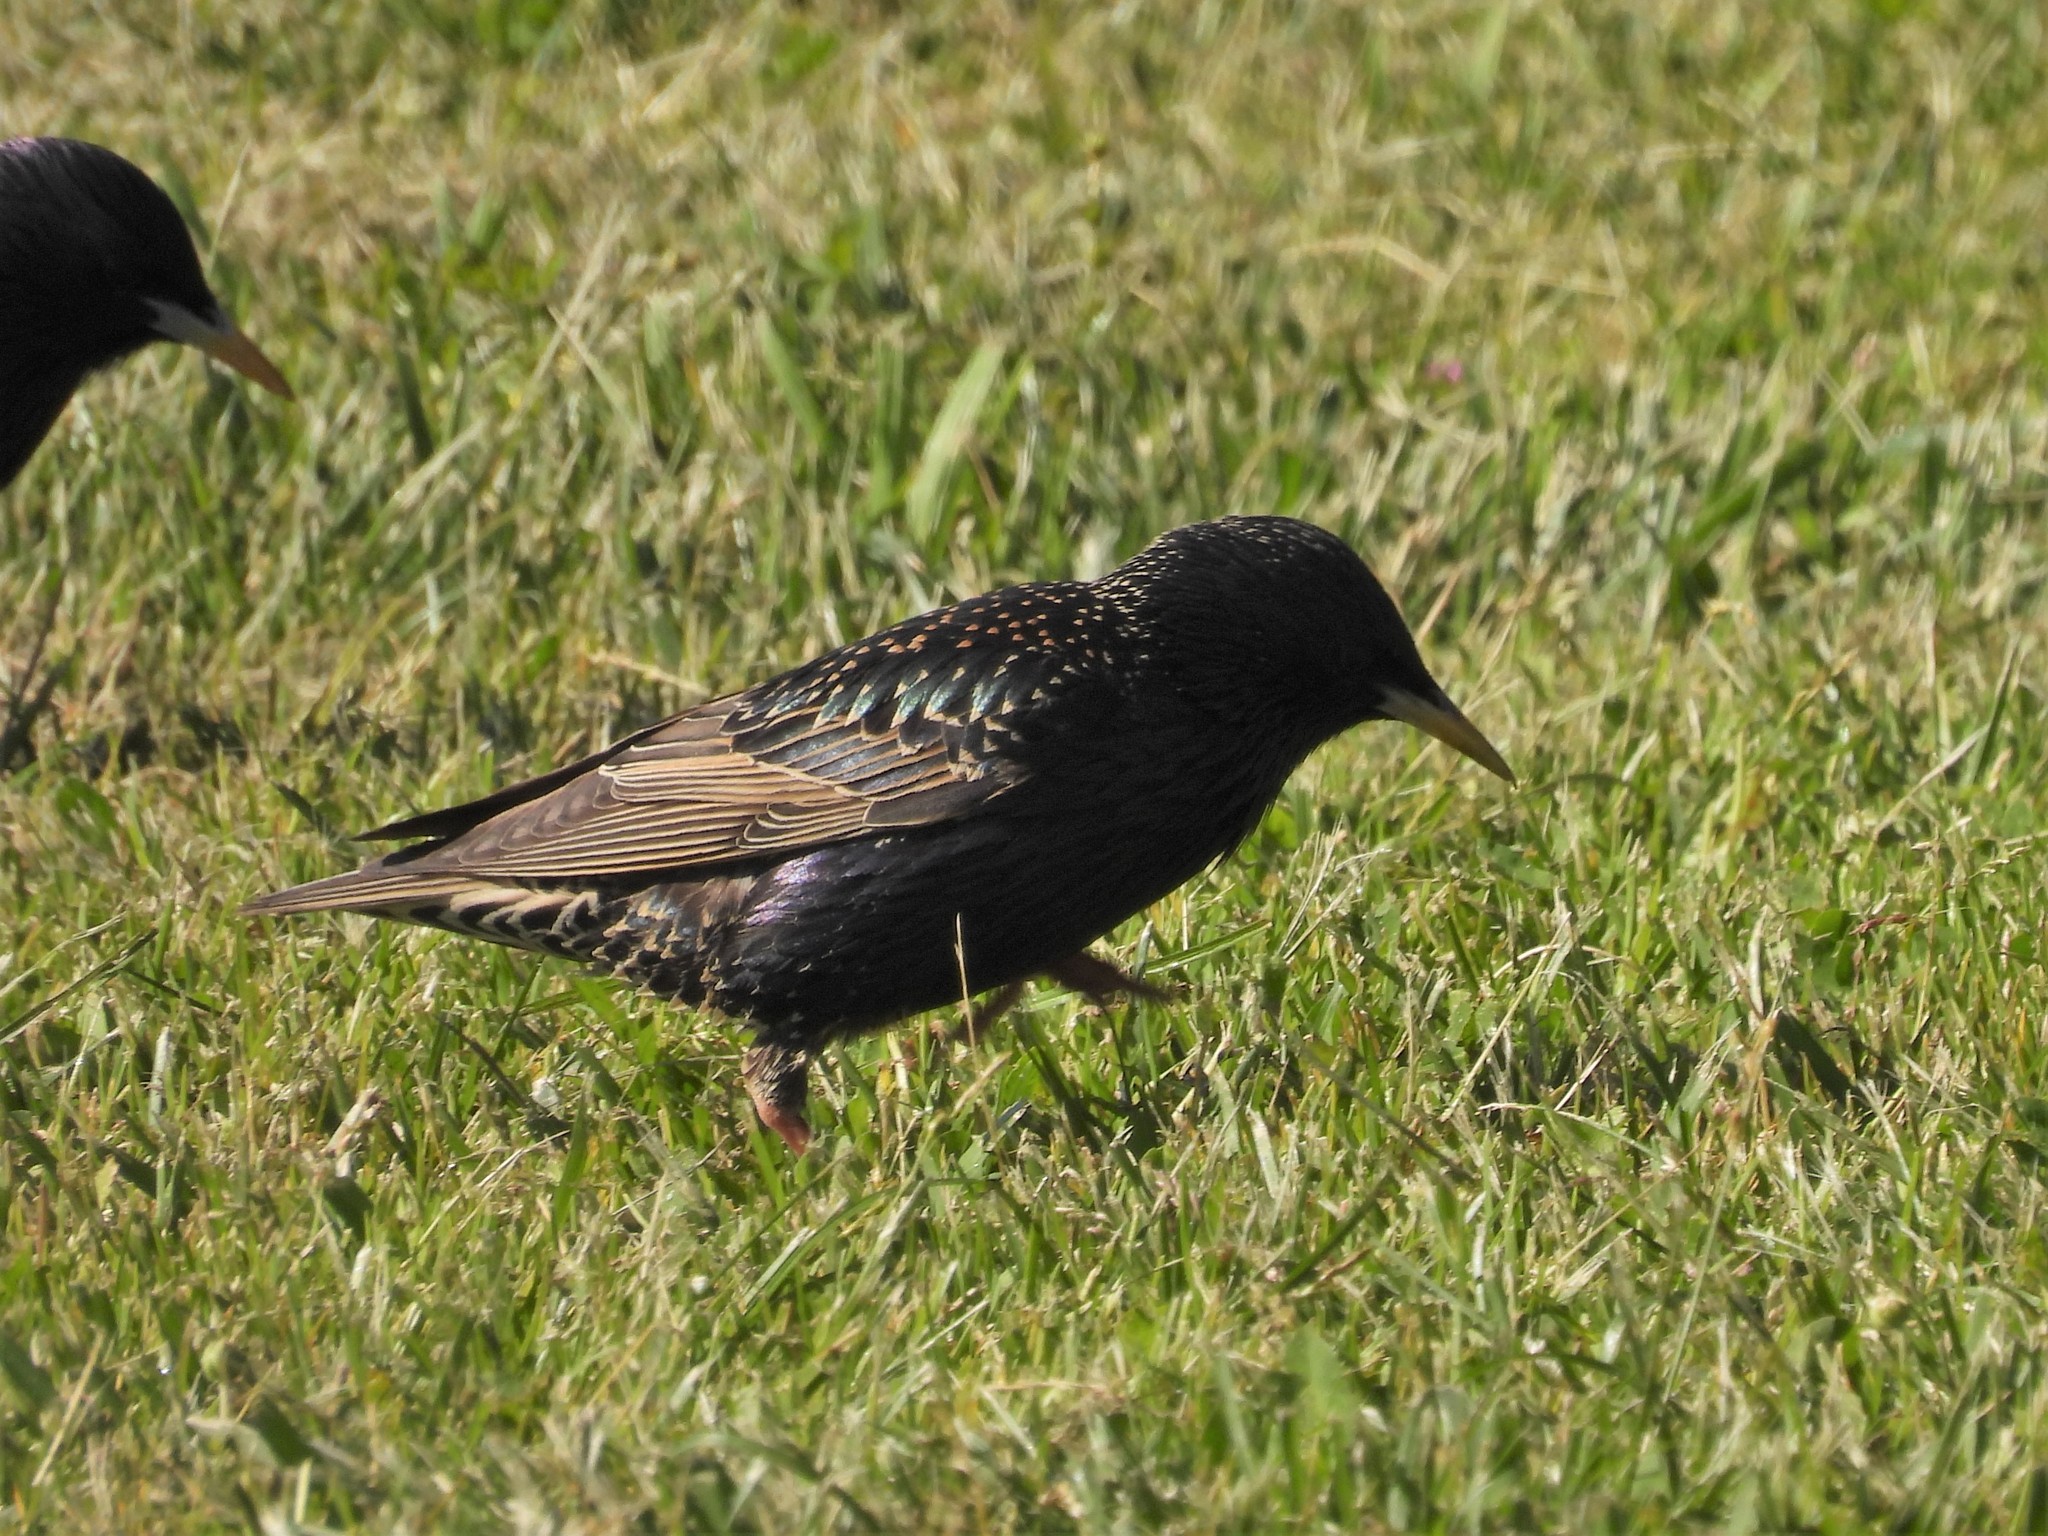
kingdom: Animalia
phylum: Chordata
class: Aves
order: Passeriformes
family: Sturnidae
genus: Sturnus
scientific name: Sturnus vulgaris
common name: Common starling
